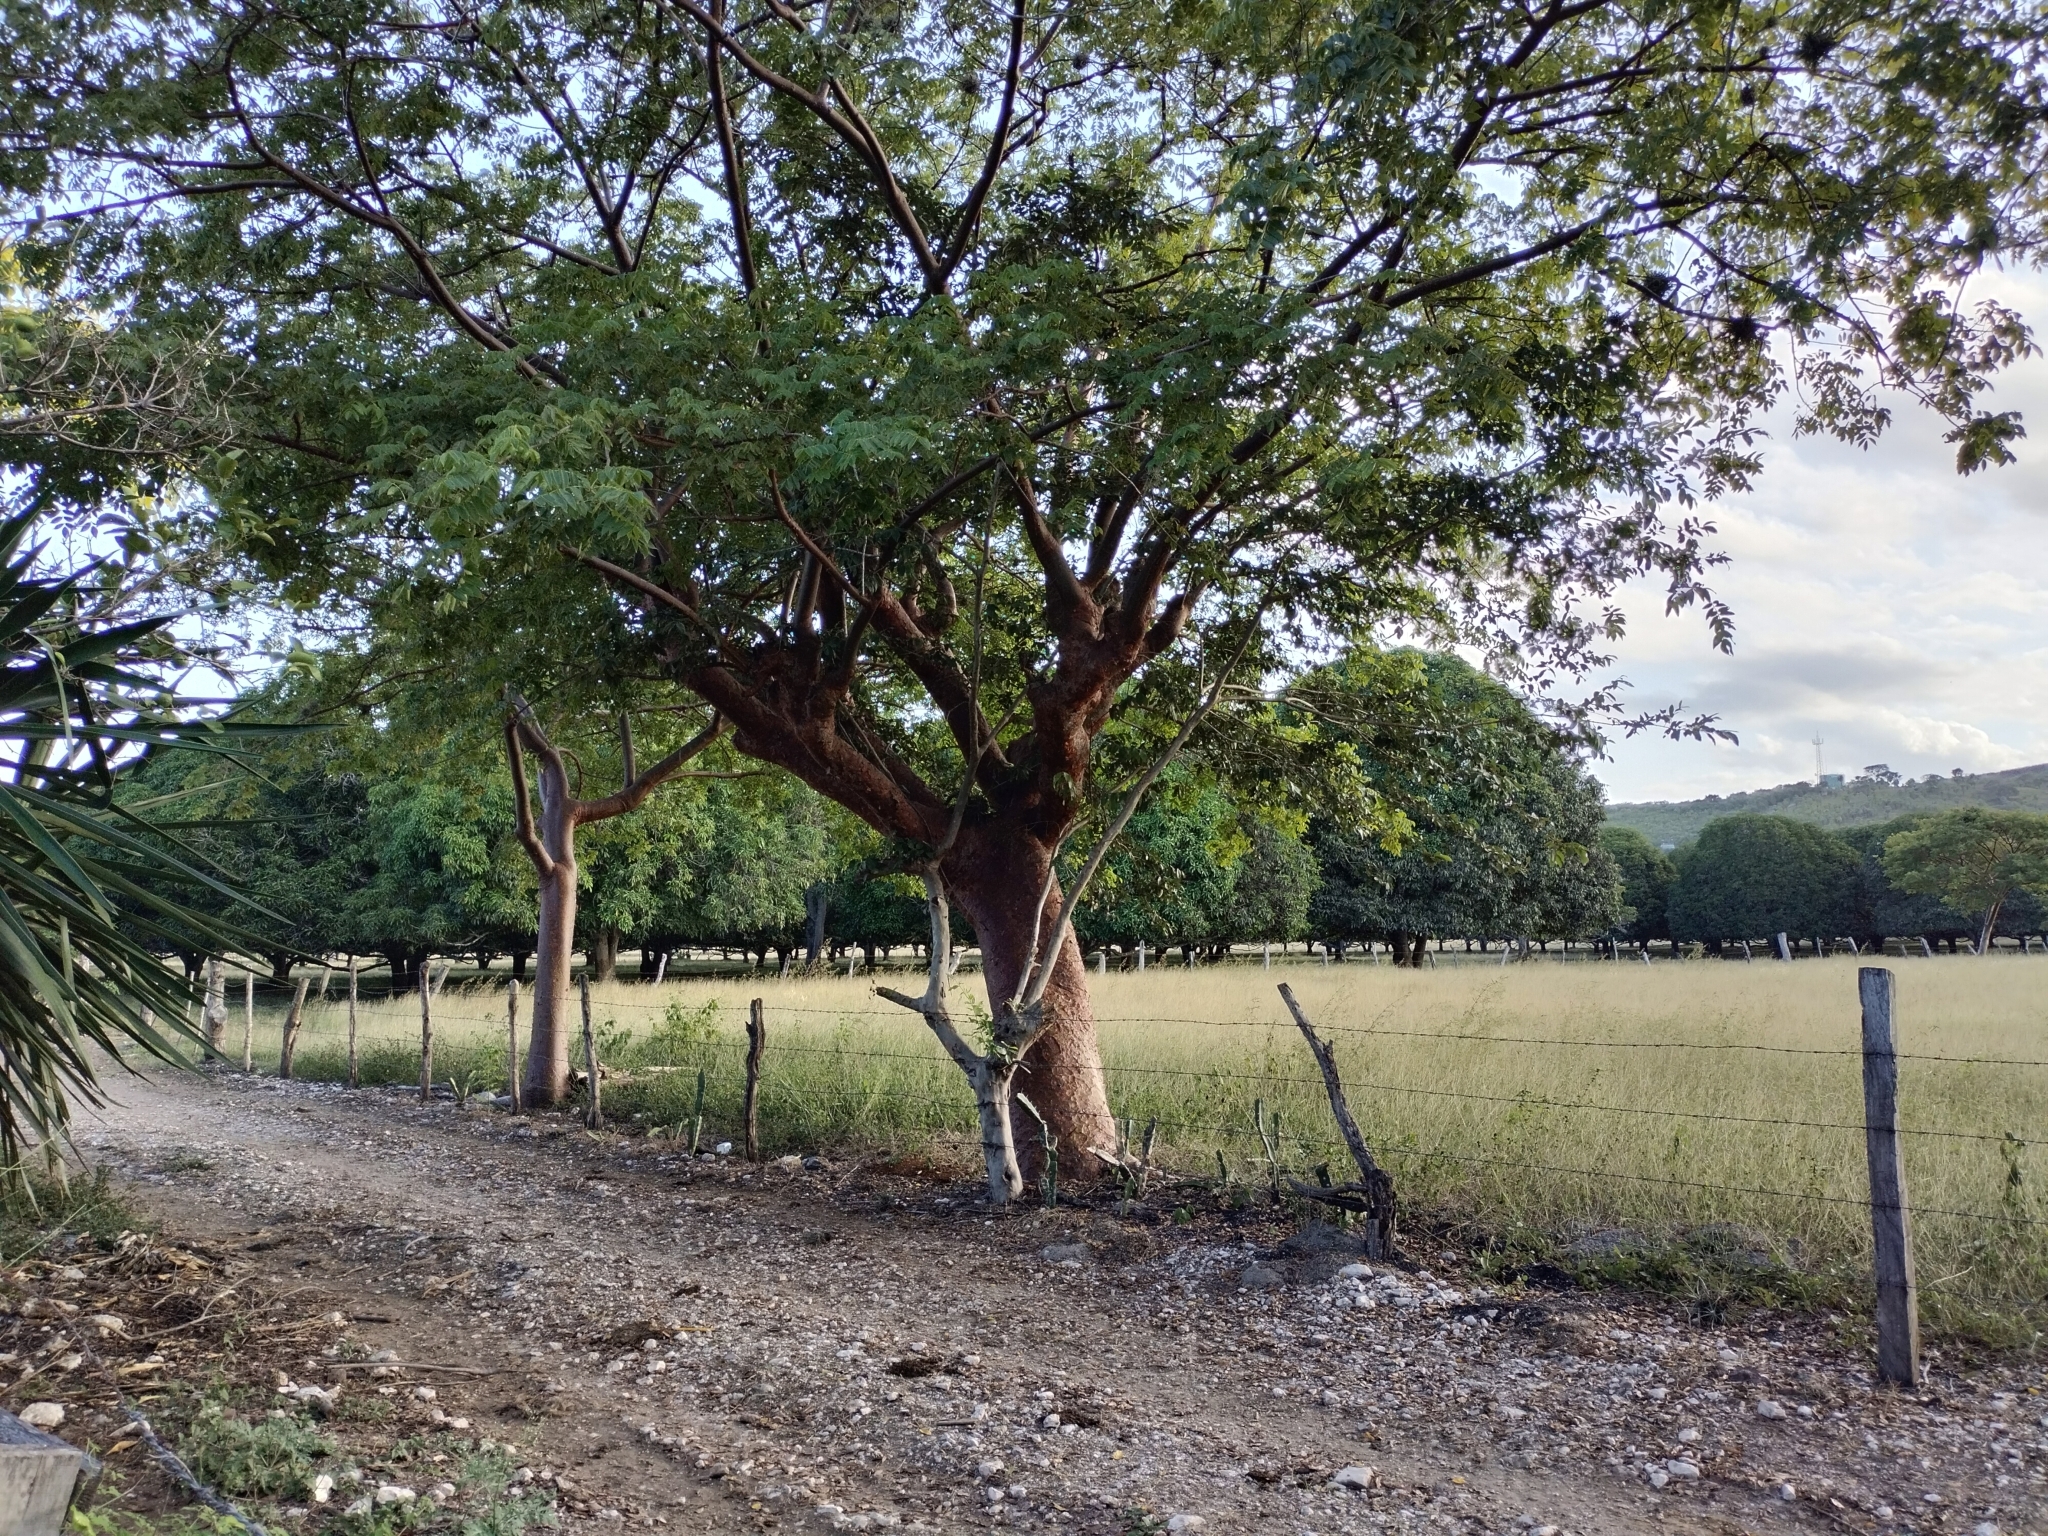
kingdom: Plantae
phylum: Tracheophyta
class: Magnoliopsida
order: Sapindales
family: Burseraceae
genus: Bursera
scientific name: Bursera simaruba
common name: Turpentine tree
